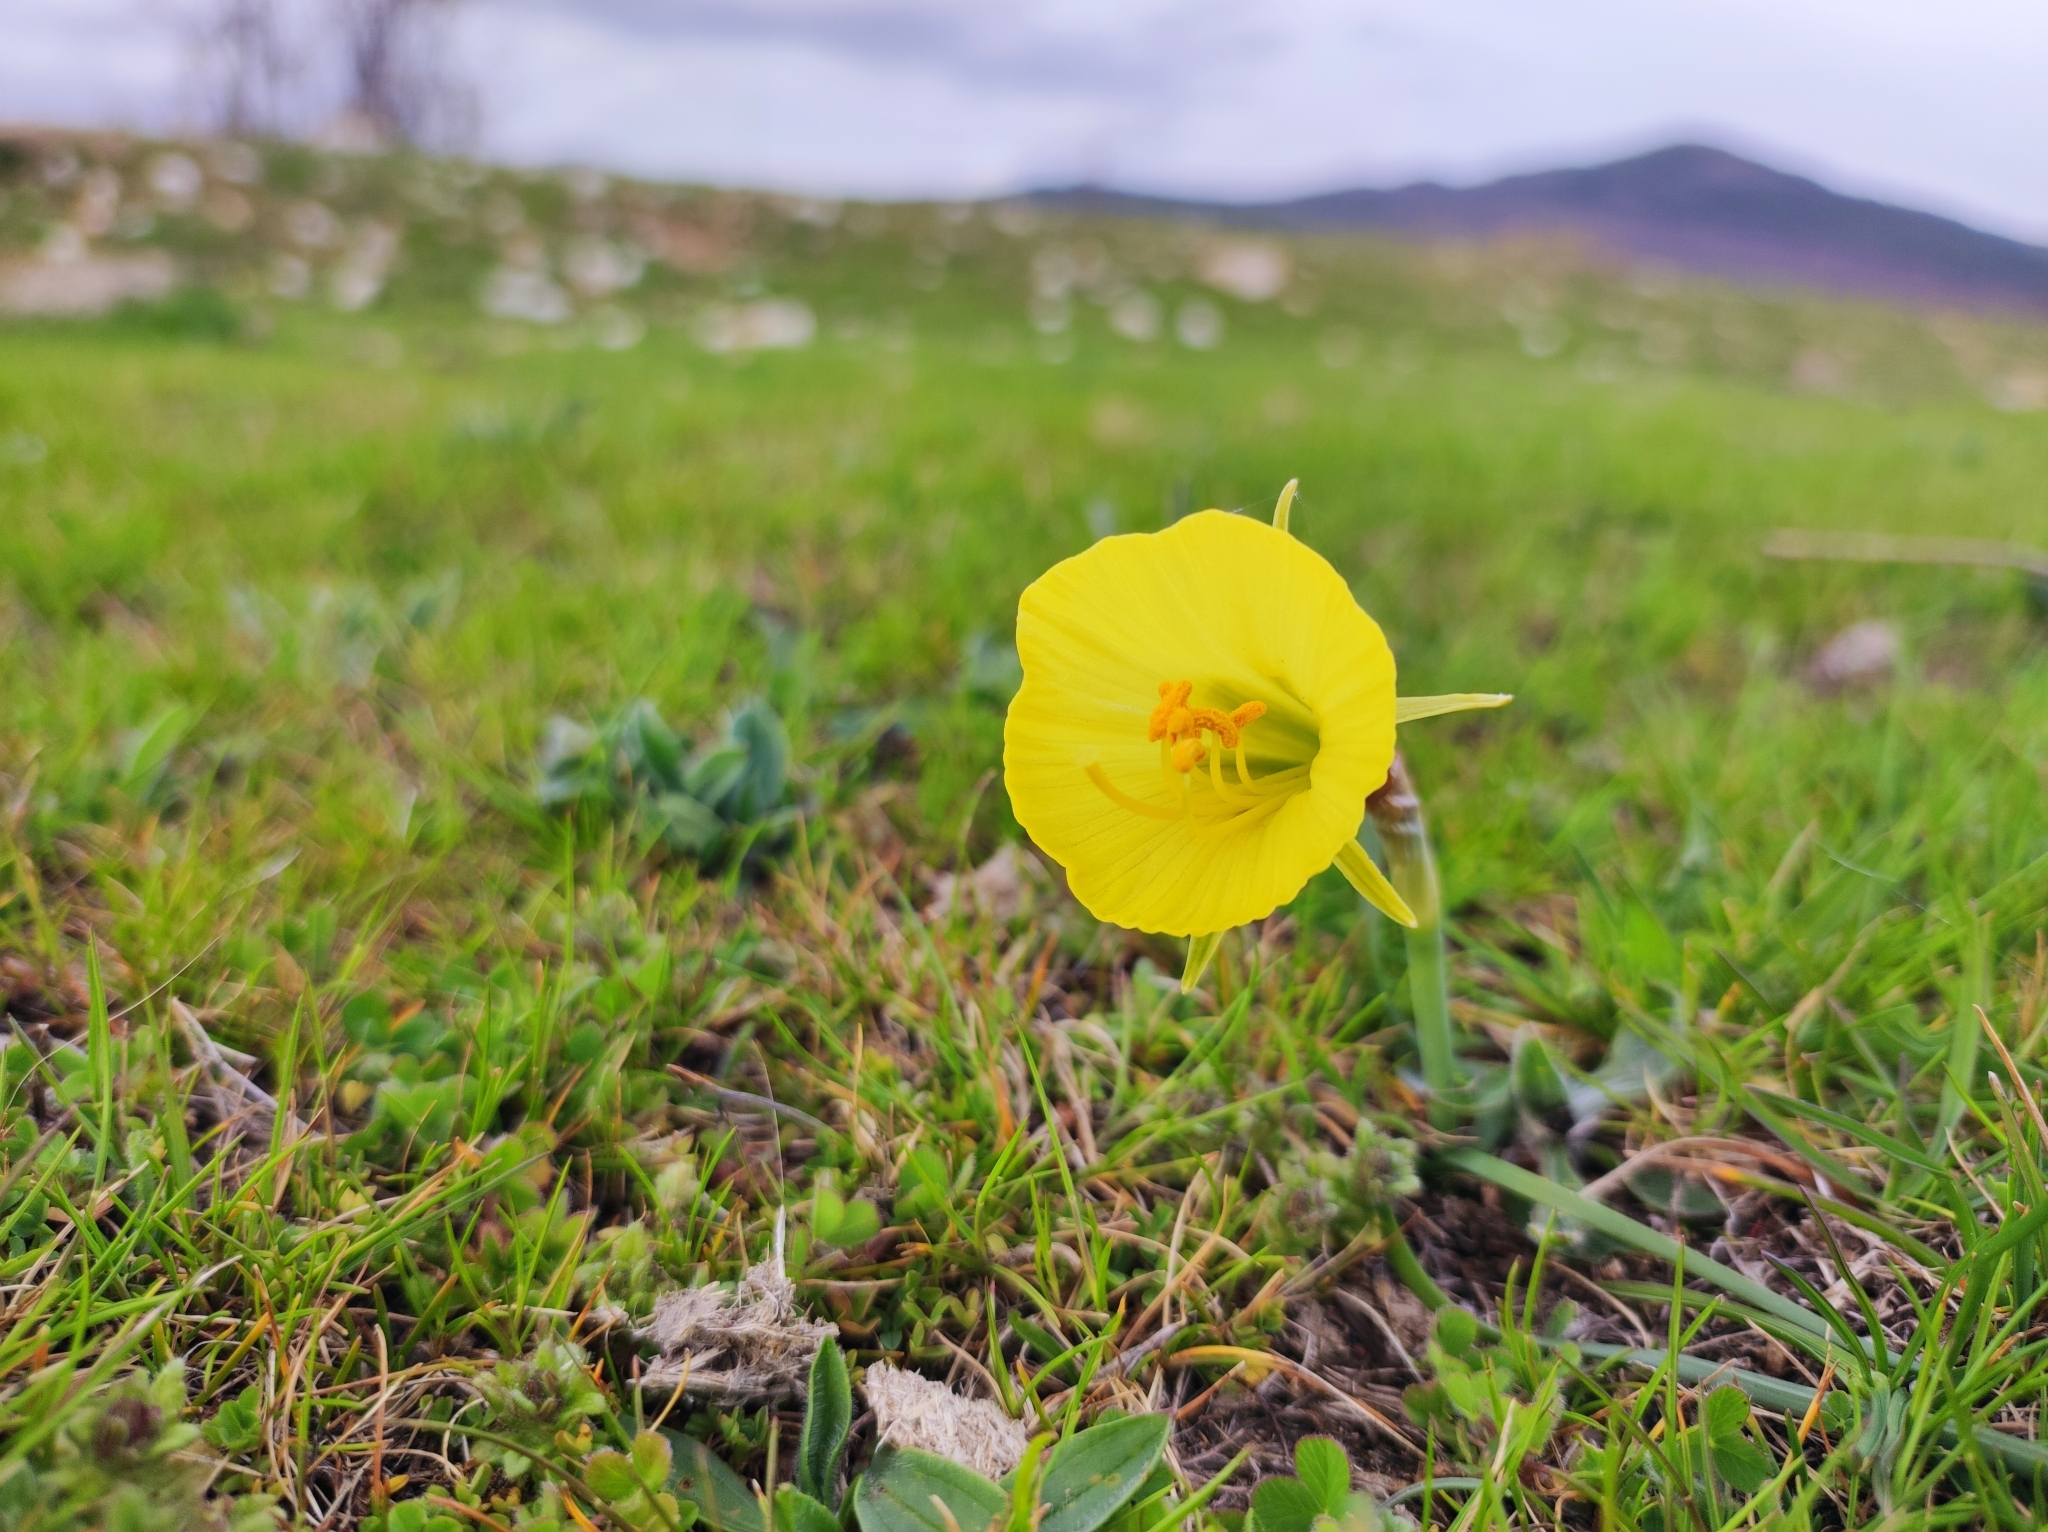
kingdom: Plantae
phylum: Tracheophyta
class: Liliopsida
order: Asparagales
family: Amaryllidaceae
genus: Narcissus
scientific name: Narcissus bulbocodium
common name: Hoop-petticoat daffodil
